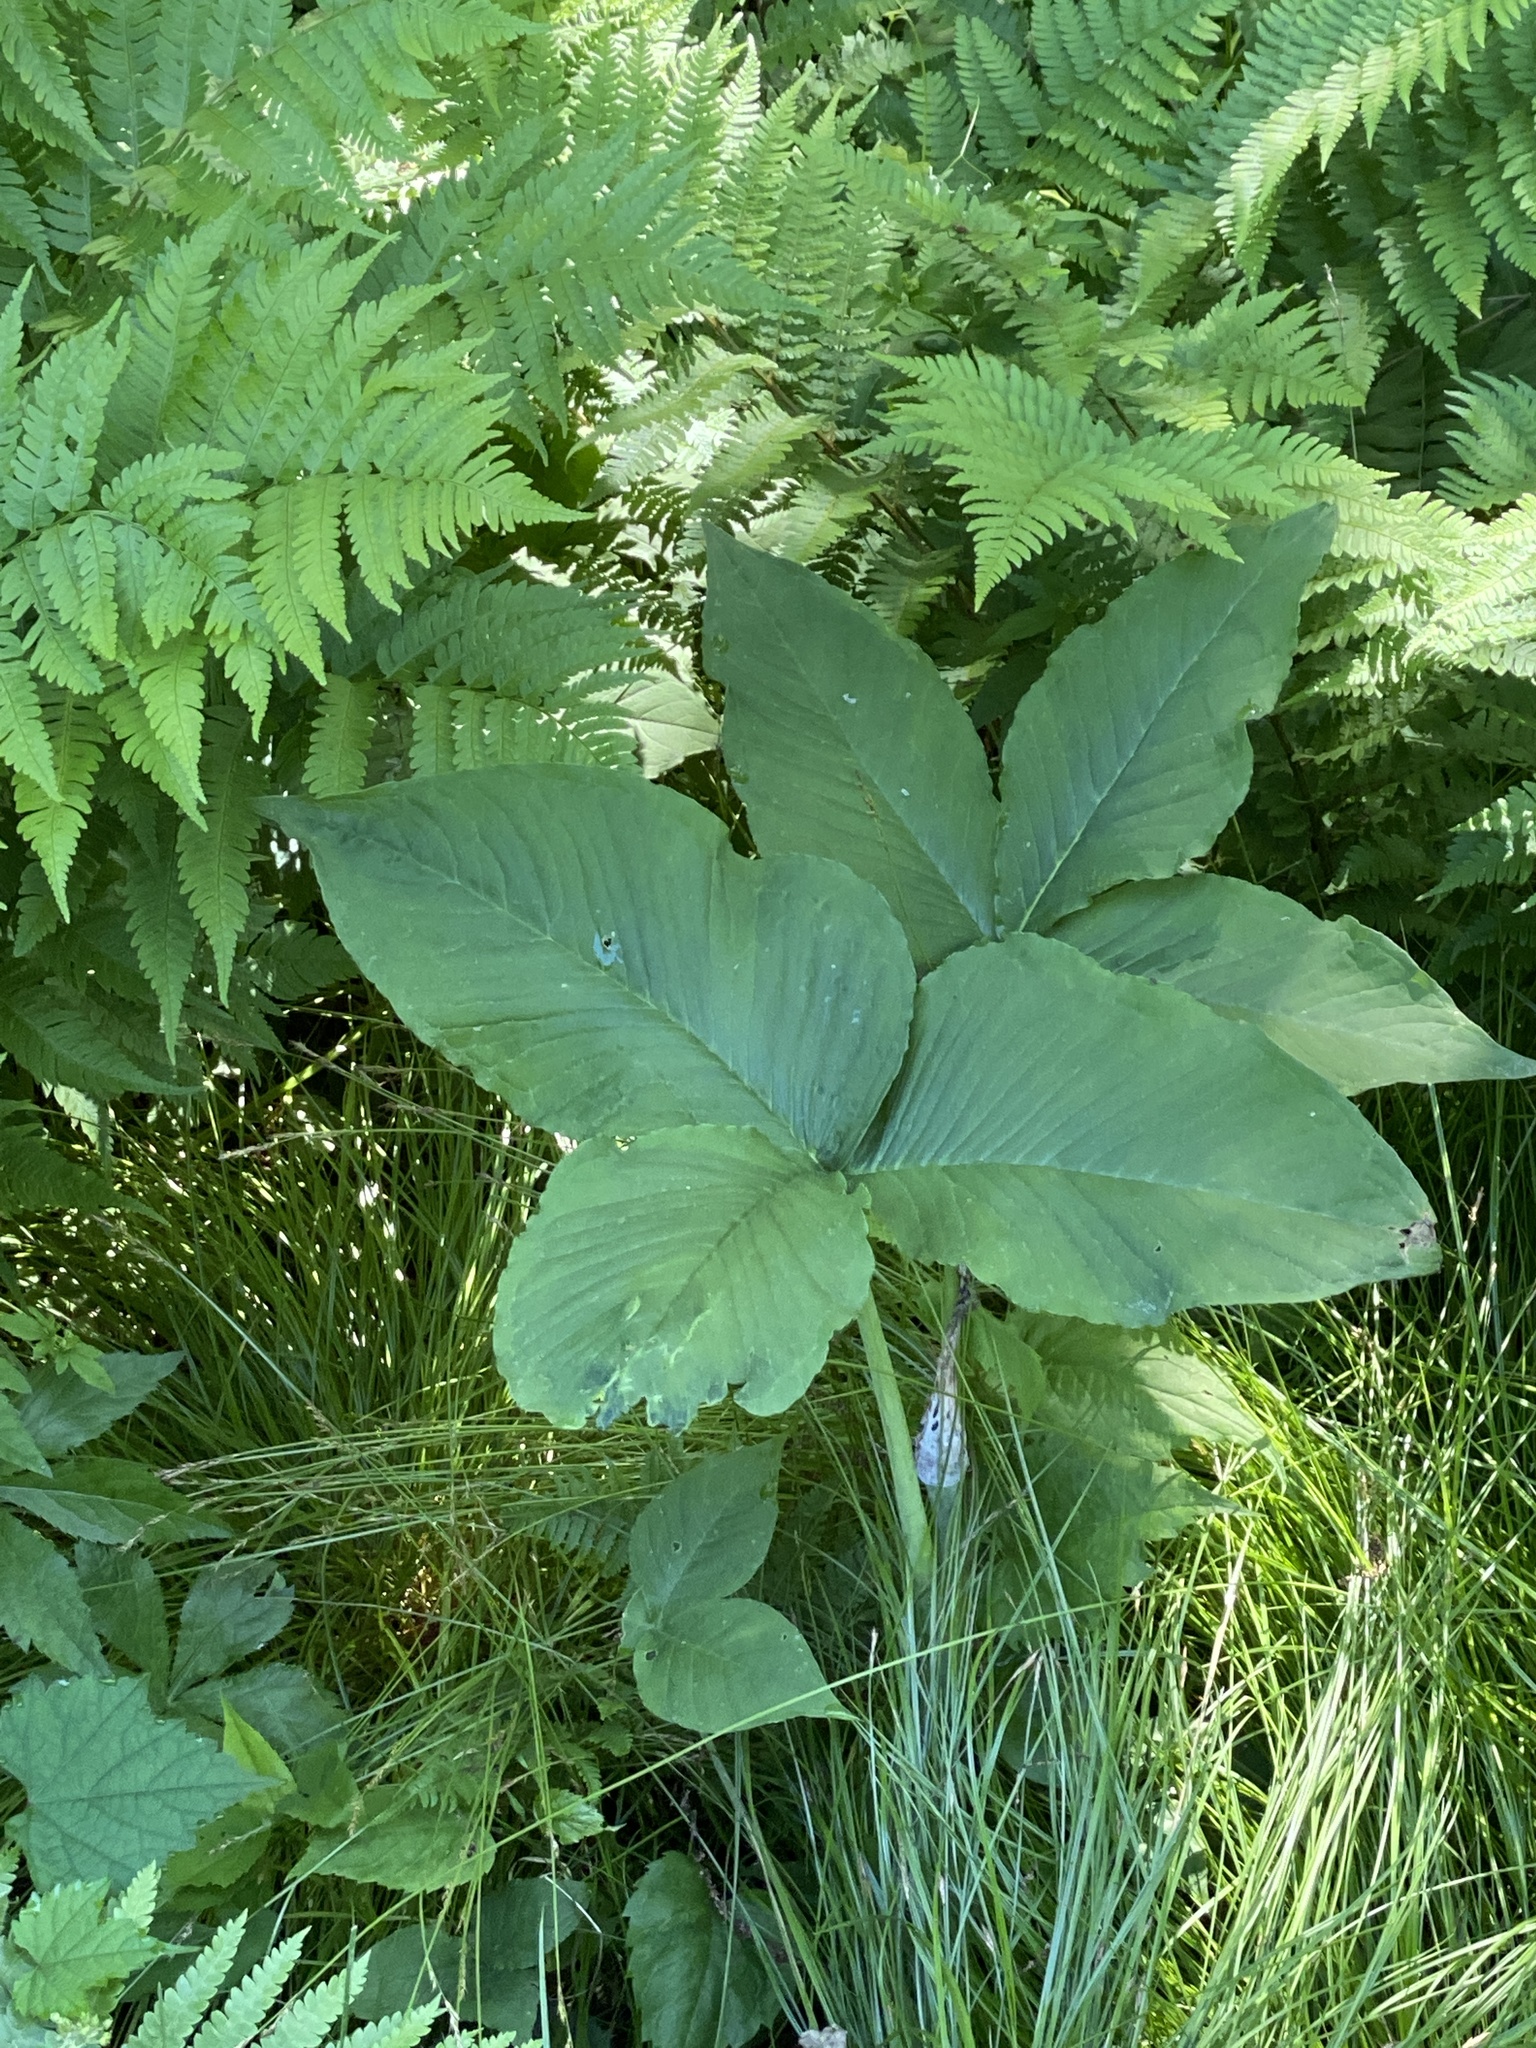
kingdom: Plantae
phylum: Tracheophyta
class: Liliopsida
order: Alismatales
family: Araceae
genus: Arisaema
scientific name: Arisaema triphyllum
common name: Jack-in-the-pulpit
